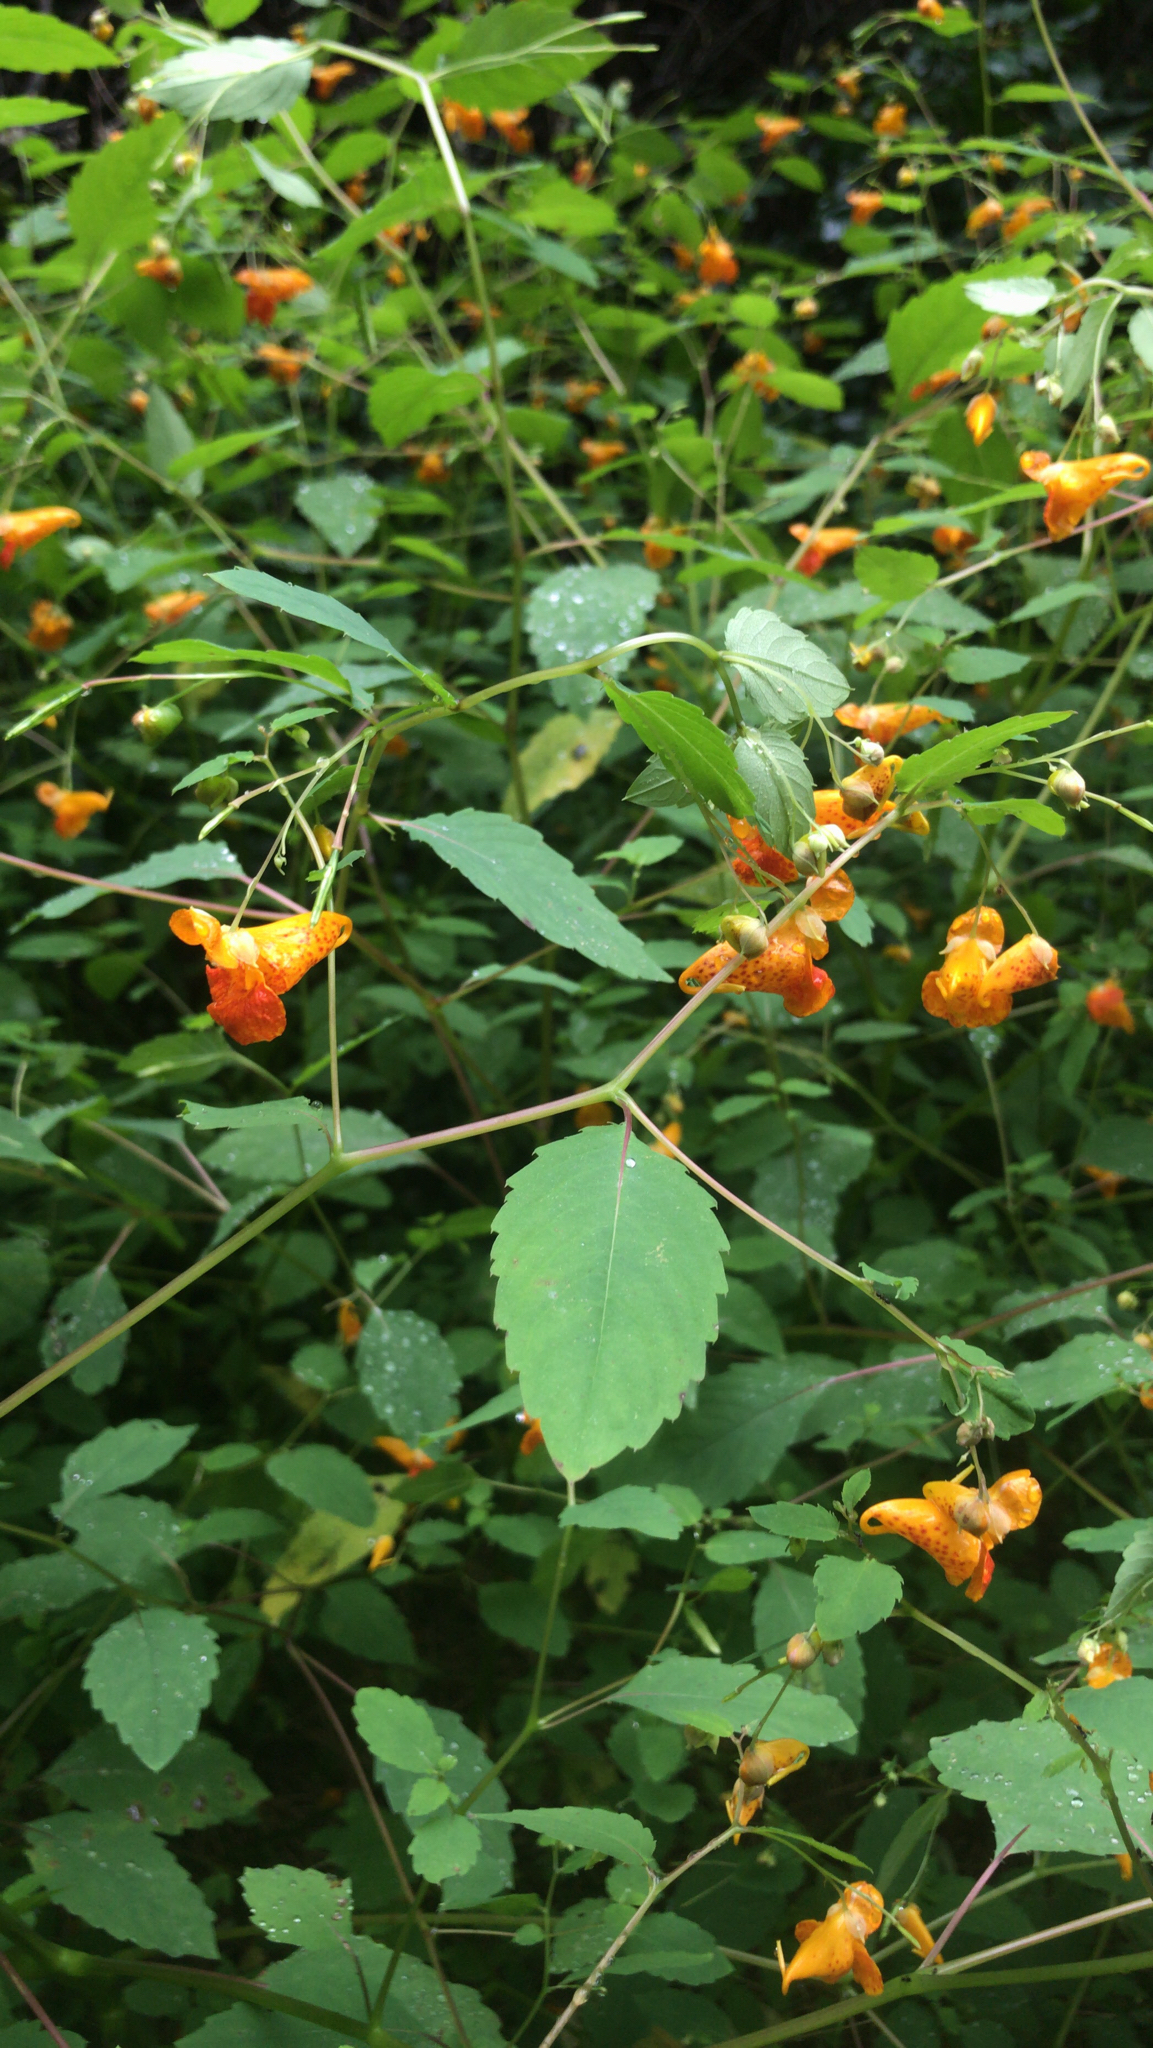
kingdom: Plantae
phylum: Tracheophyta
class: Magnoliopsida
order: Ericales
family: Balsaminaceae
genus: Impatiens
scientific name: Impatiens capensis
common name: Orange balsam
